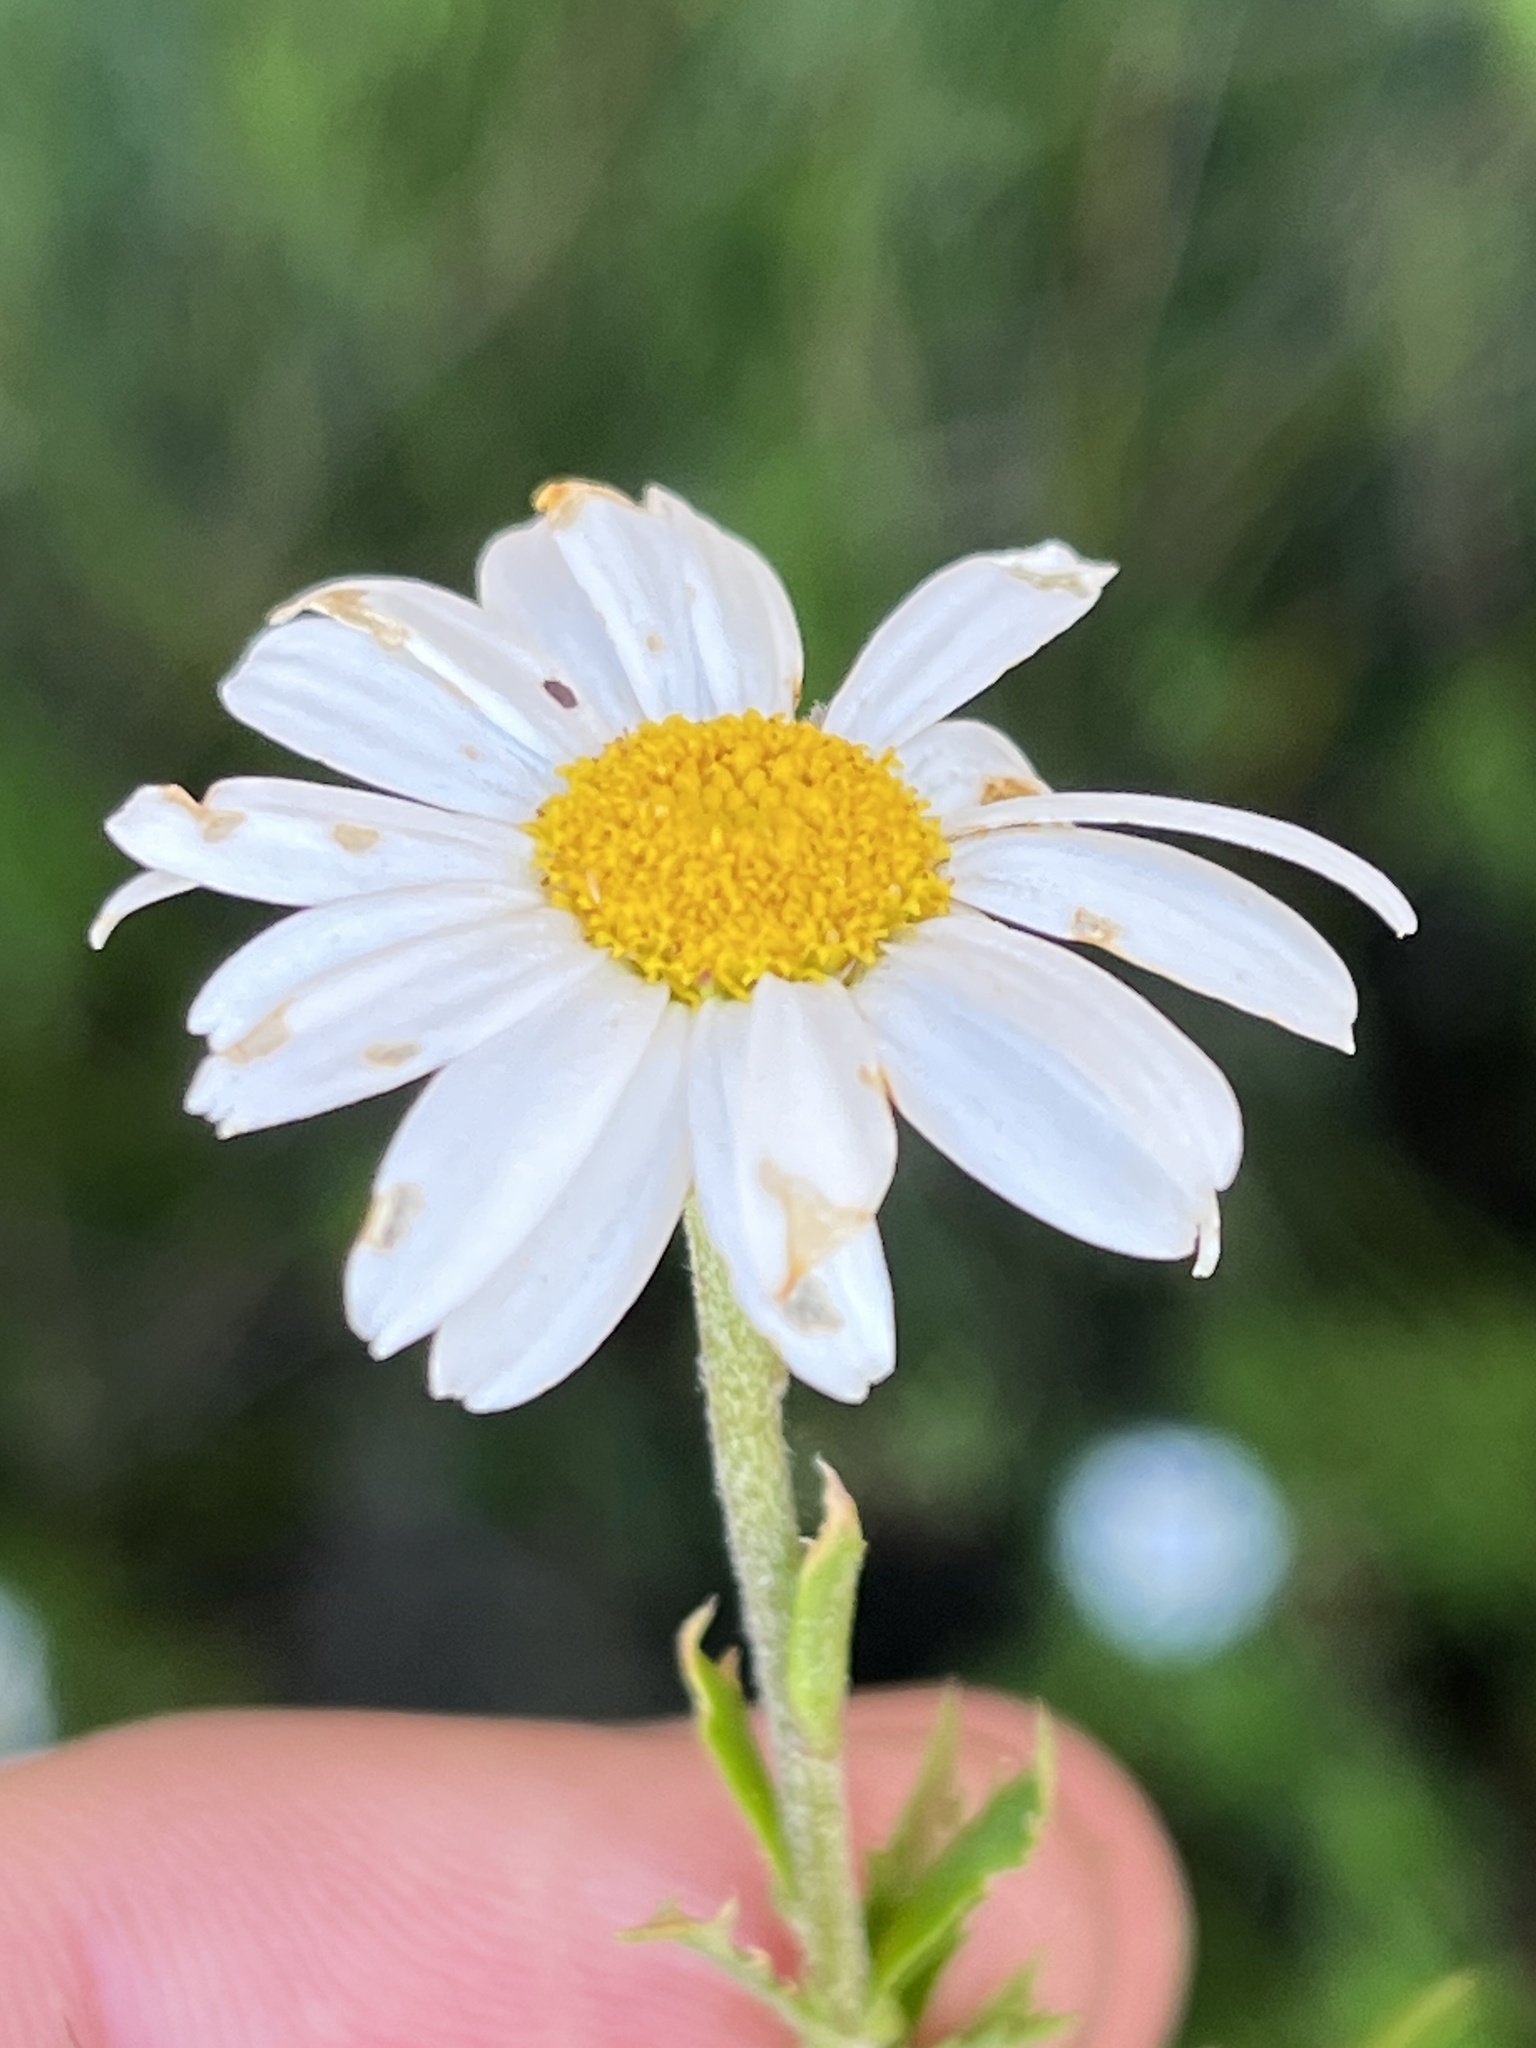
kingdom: Plantae
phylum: Tracheophyta
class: Magnoliopsida
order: Asterales
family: Asteraceae
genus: Osmitopsis
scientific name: Osmitopsis osmitoides
